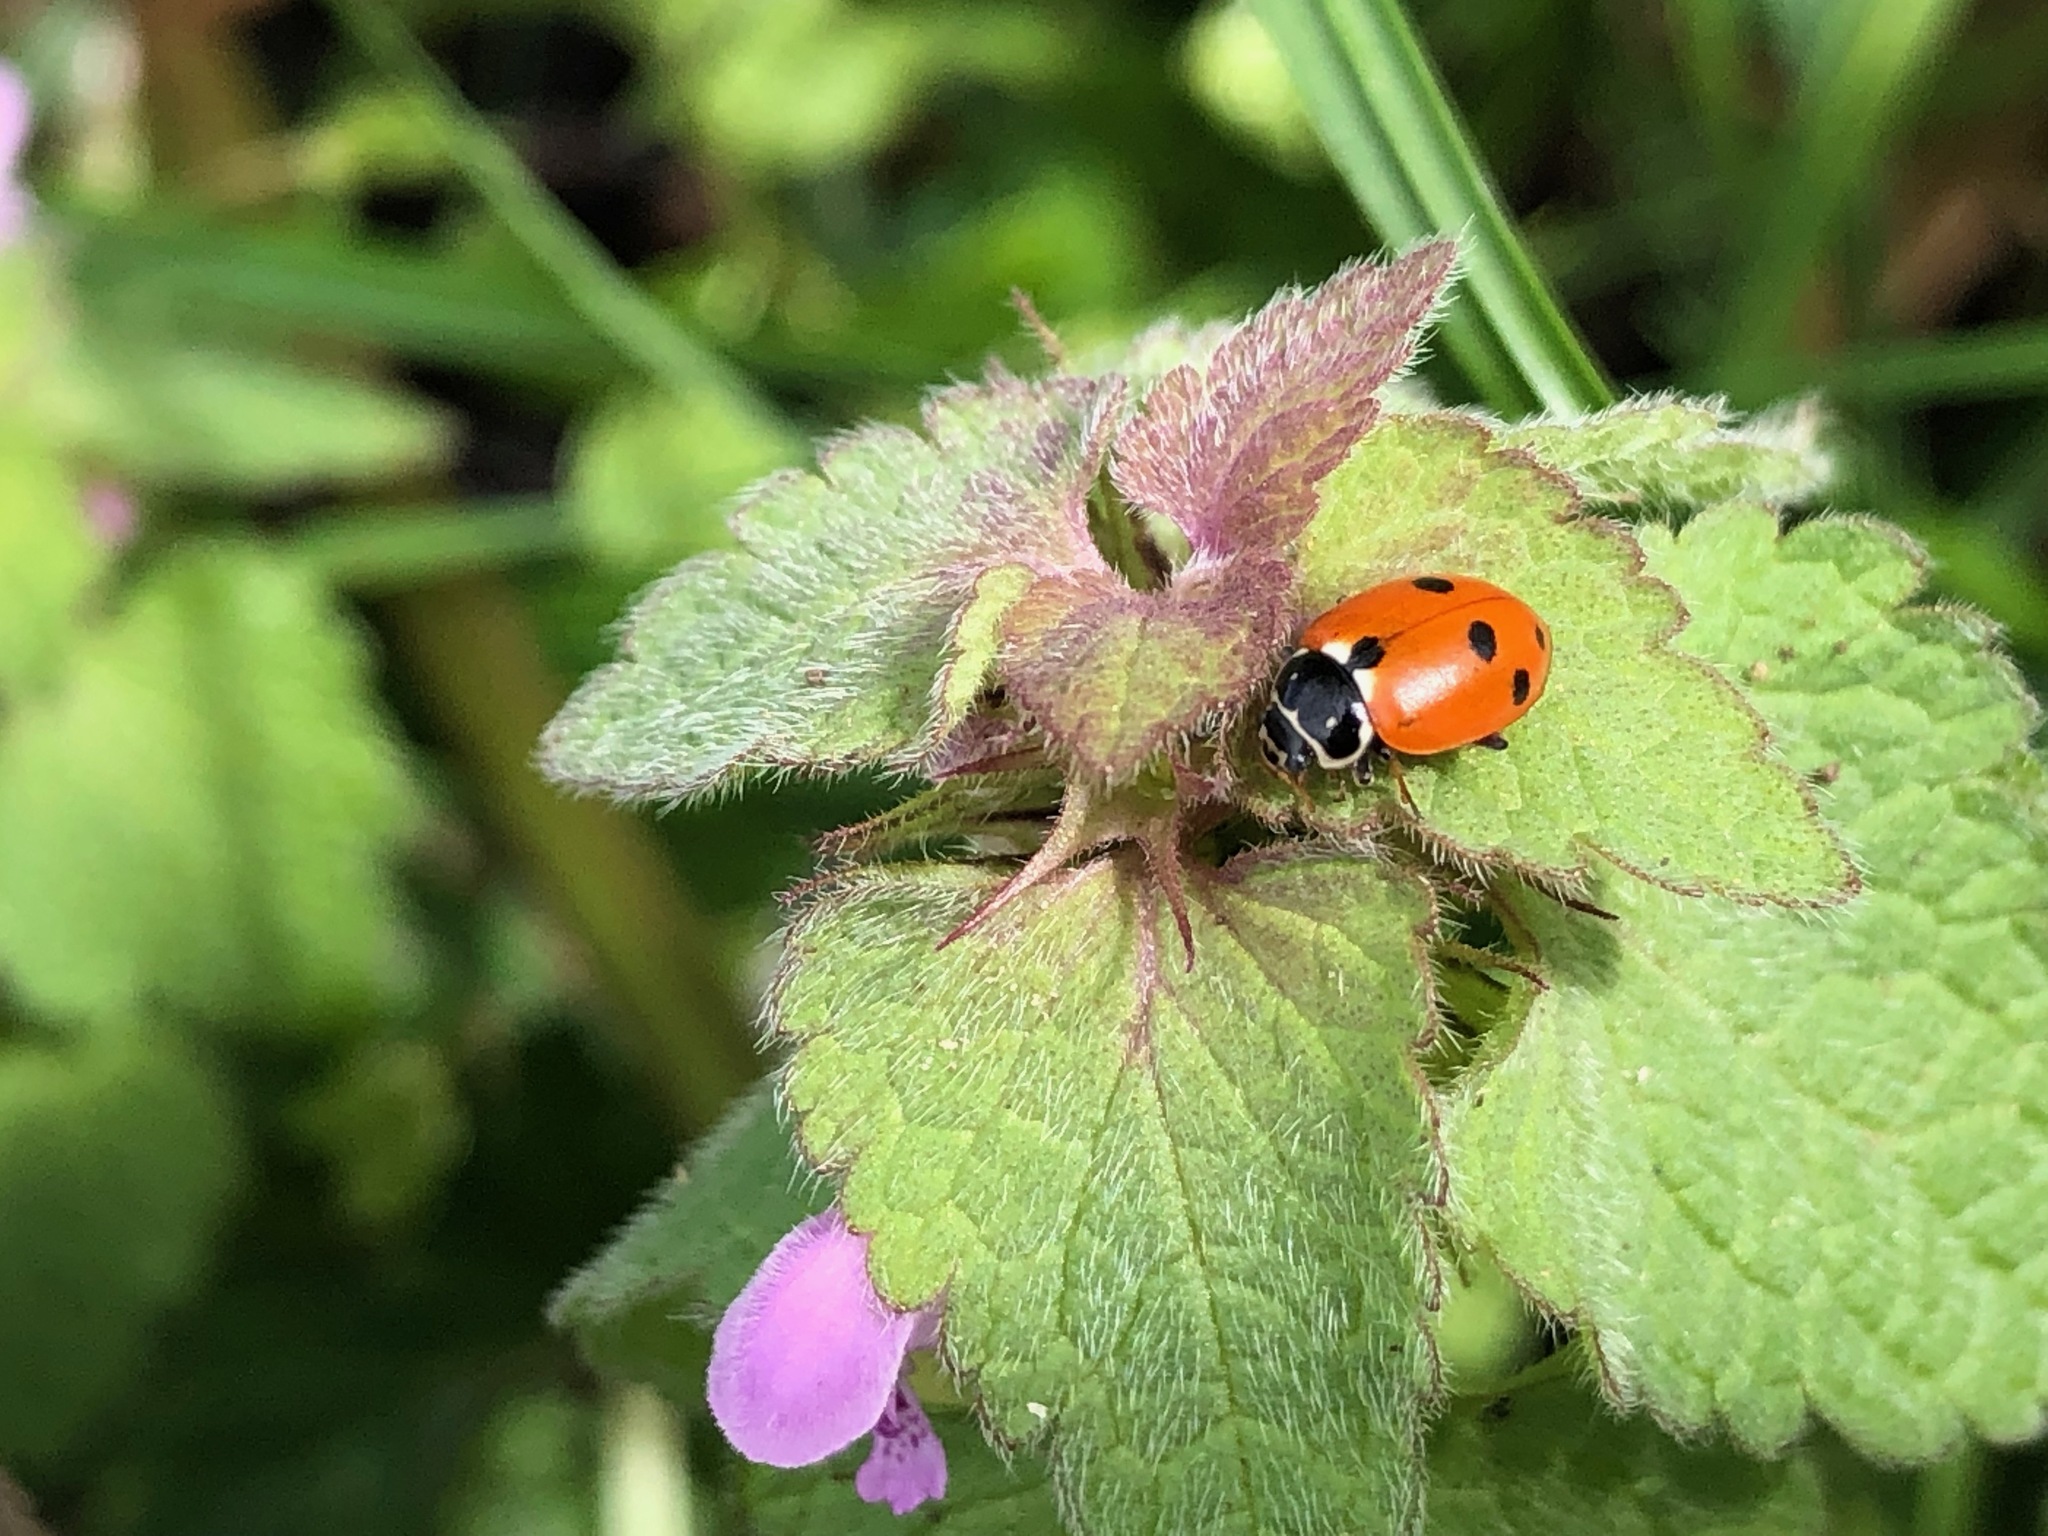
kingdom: Animalia
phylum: Arthropoda
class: Insecta
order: Coleoptera
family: Coccinellidae
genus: Hippodamia
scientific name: Hippodamia variegata
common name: Ladybird beetle
